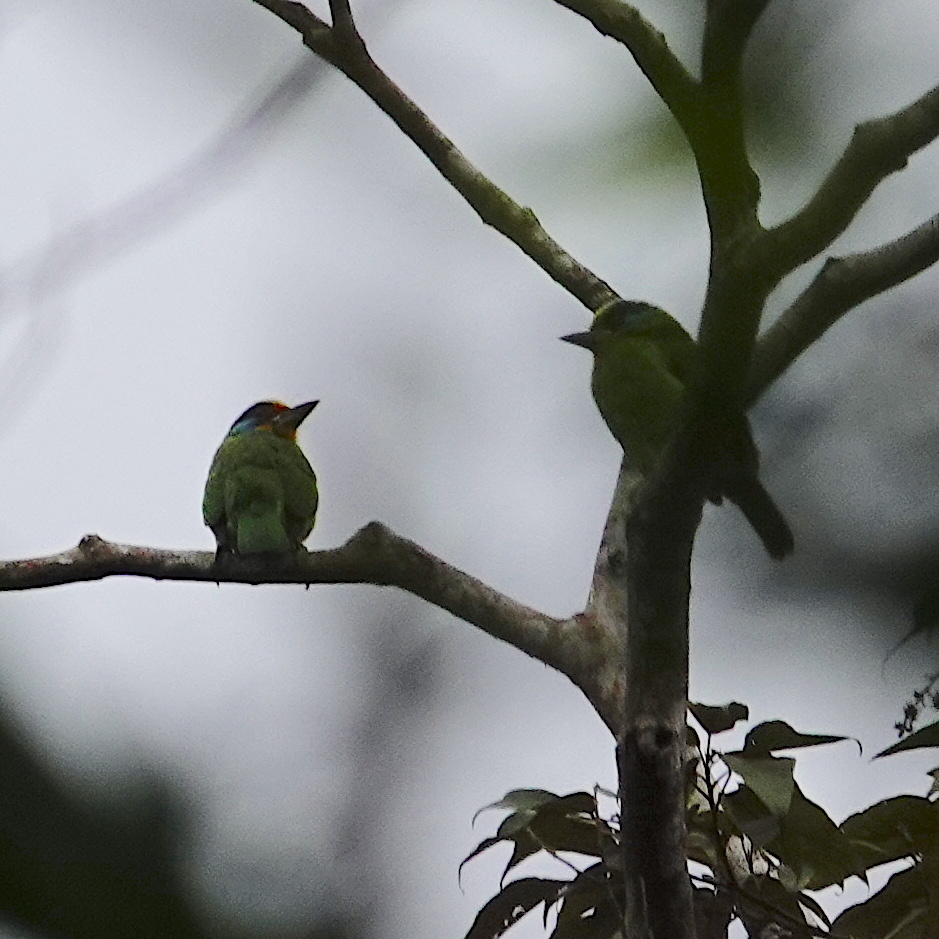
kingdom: Animalia
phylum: Chordata
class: Aves
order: Piciformes
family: Megalaimidae
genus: Psilopogon
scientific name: Psilopogon nuchalis
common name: Taiwan barbet
